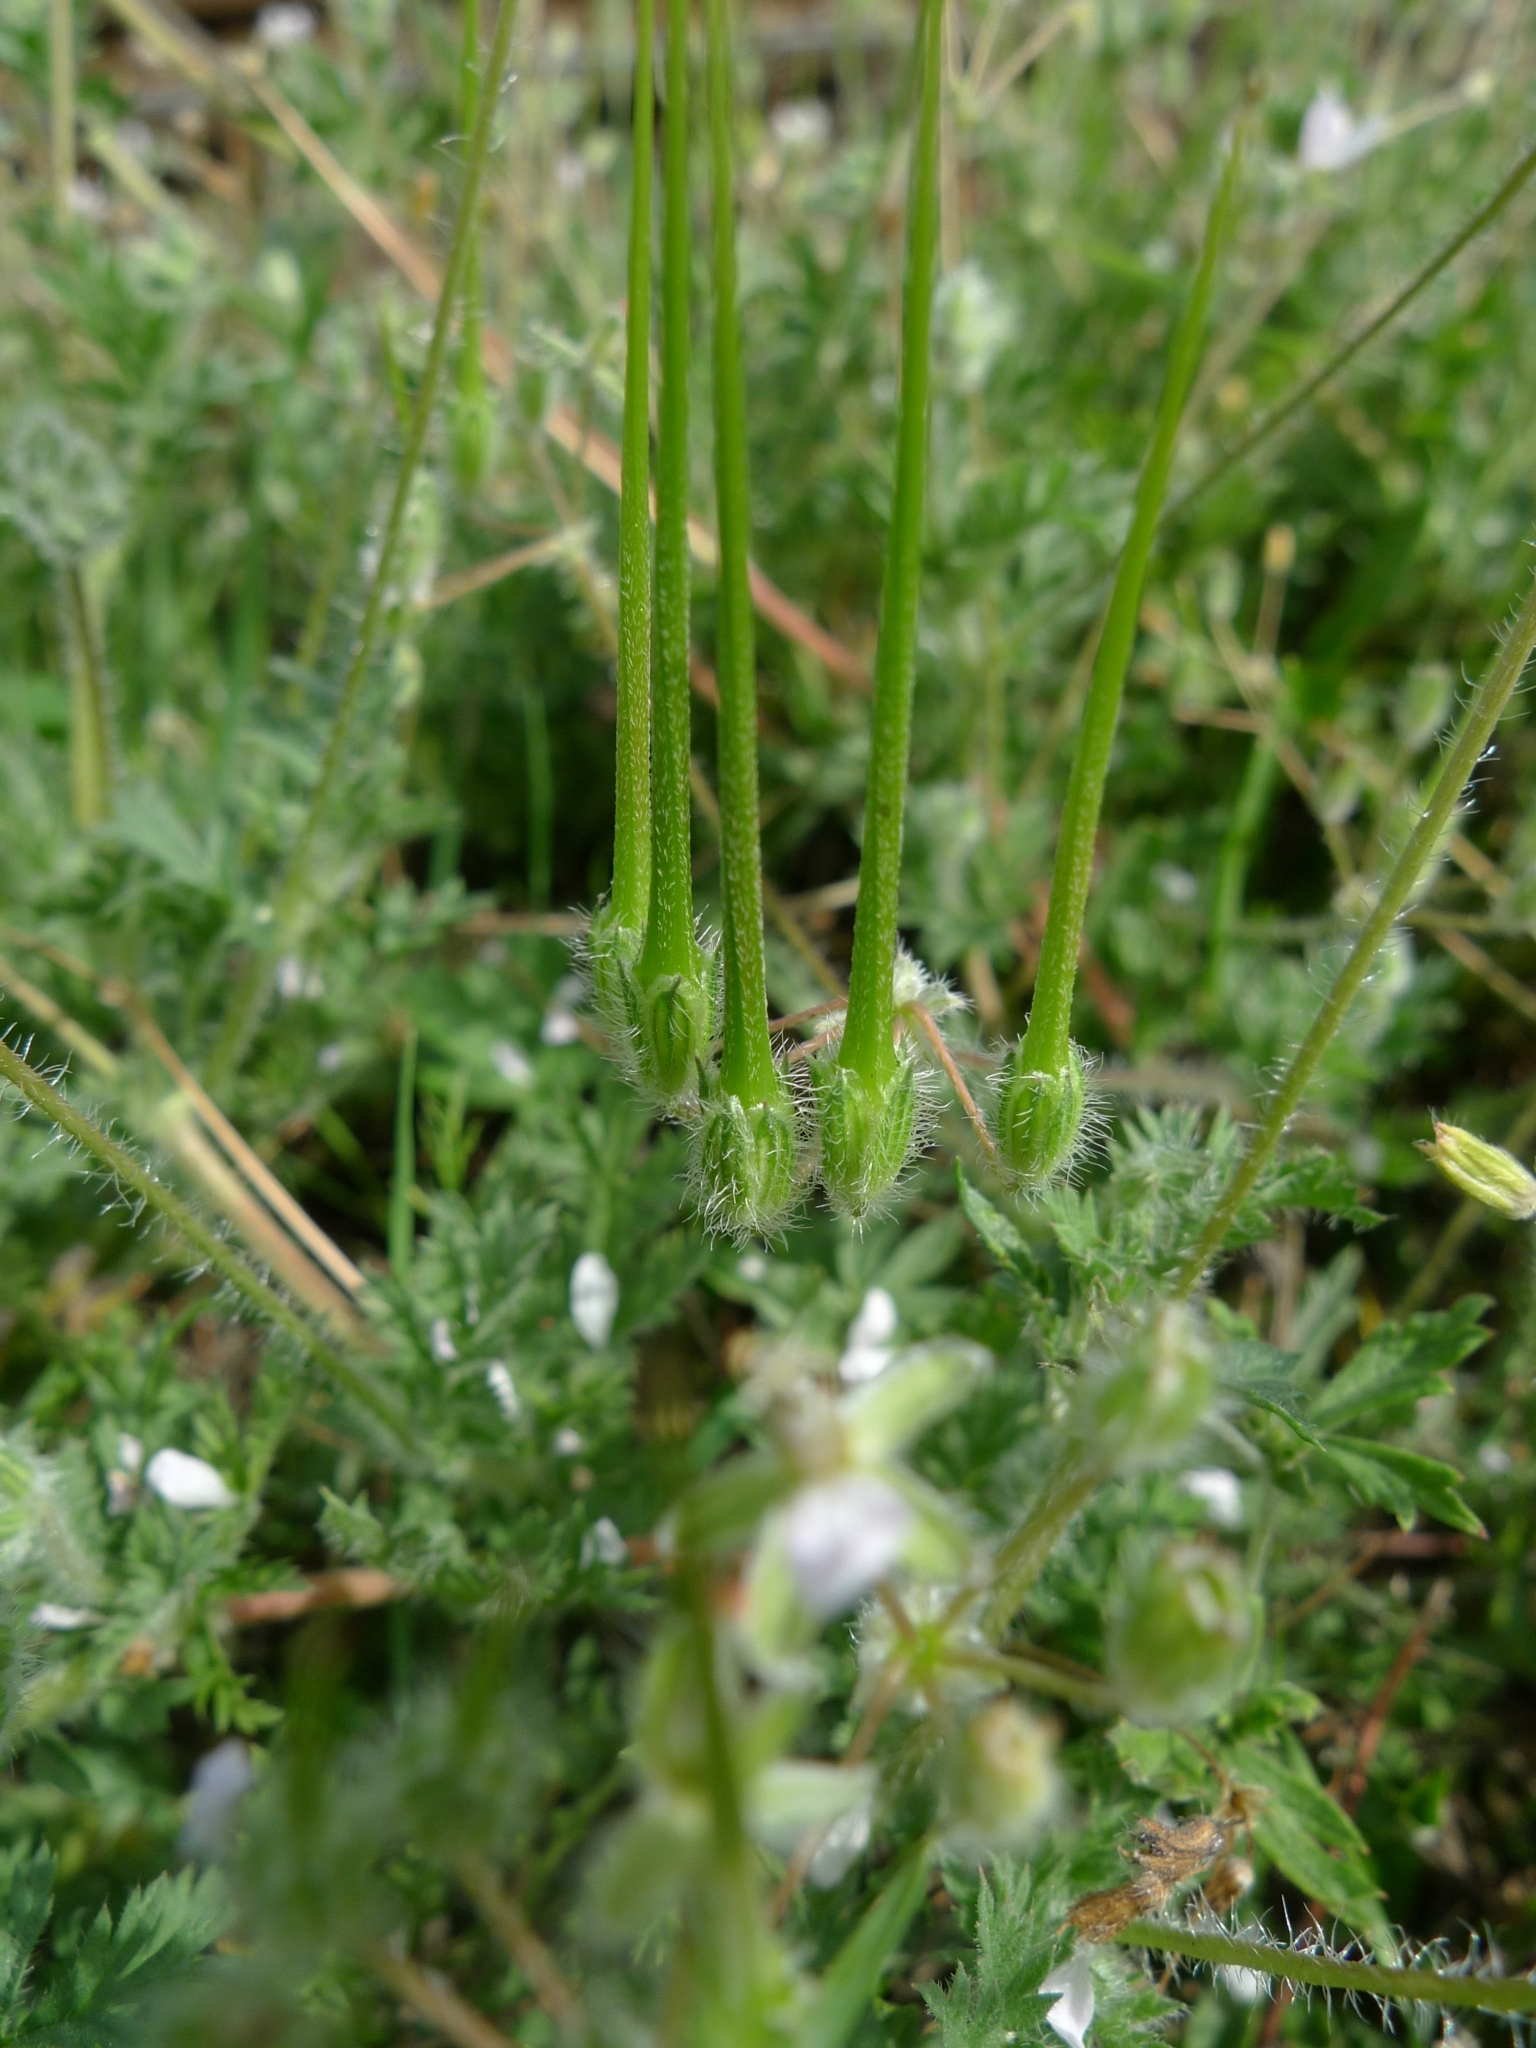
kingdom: Plantae
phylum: Tracheophyta
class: Magnoliopsida
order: Geraniales
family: Geraniaceae
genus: Erodium
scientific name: Erodium cicutarium
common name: Common stork's-bill
